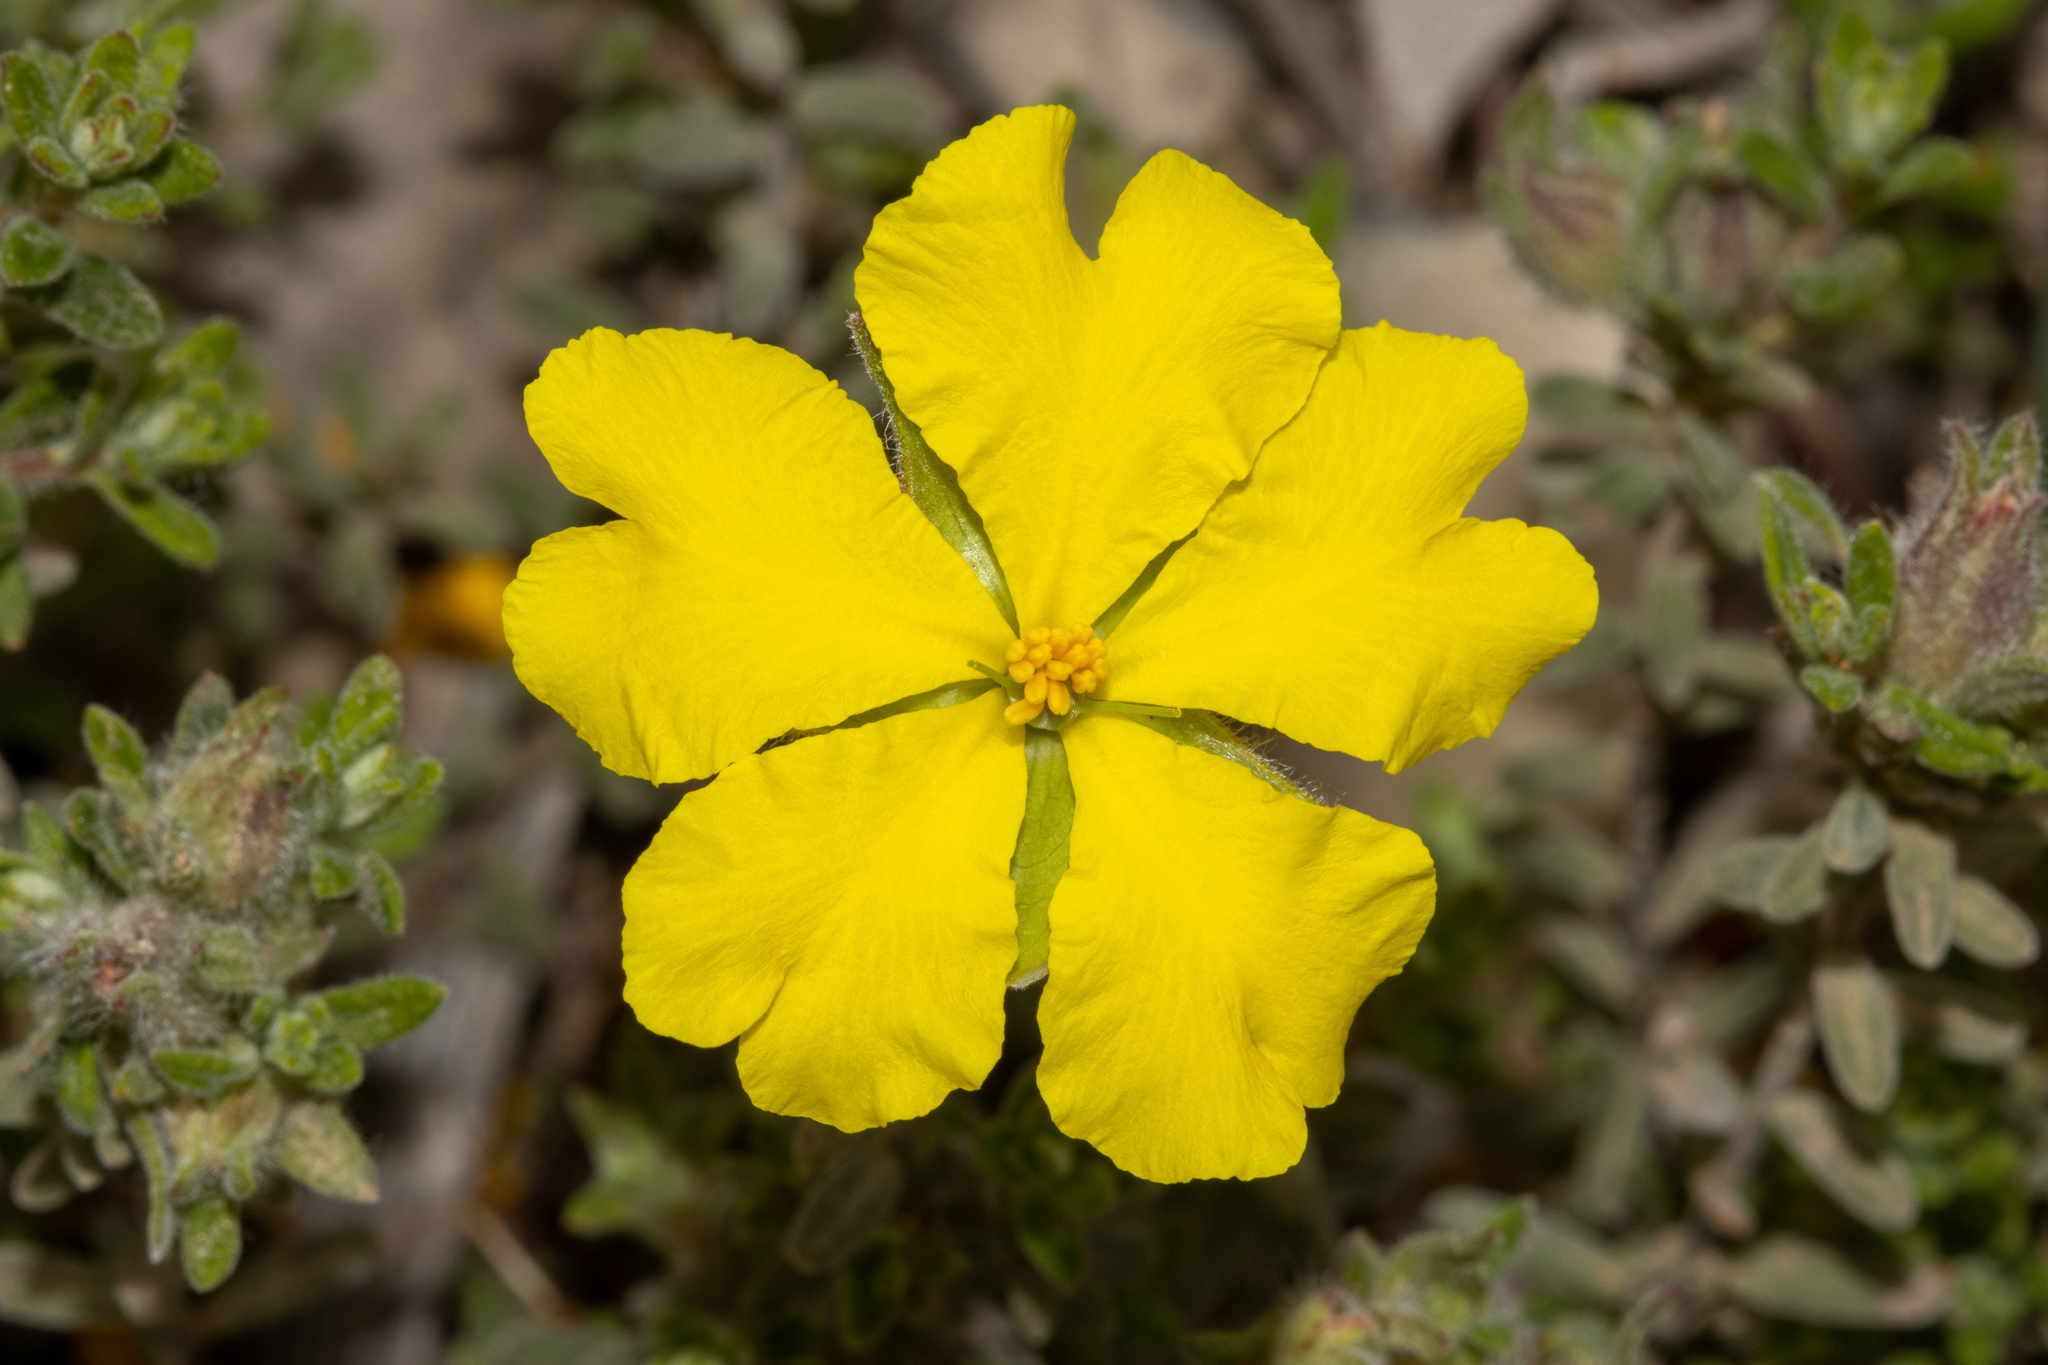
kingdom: Plantae
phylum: Tracheophyta
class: Magnoliopsida
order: Dilleniales
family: Dilleniaceae
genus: Hibbertia
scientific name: Hibbertia crinita
